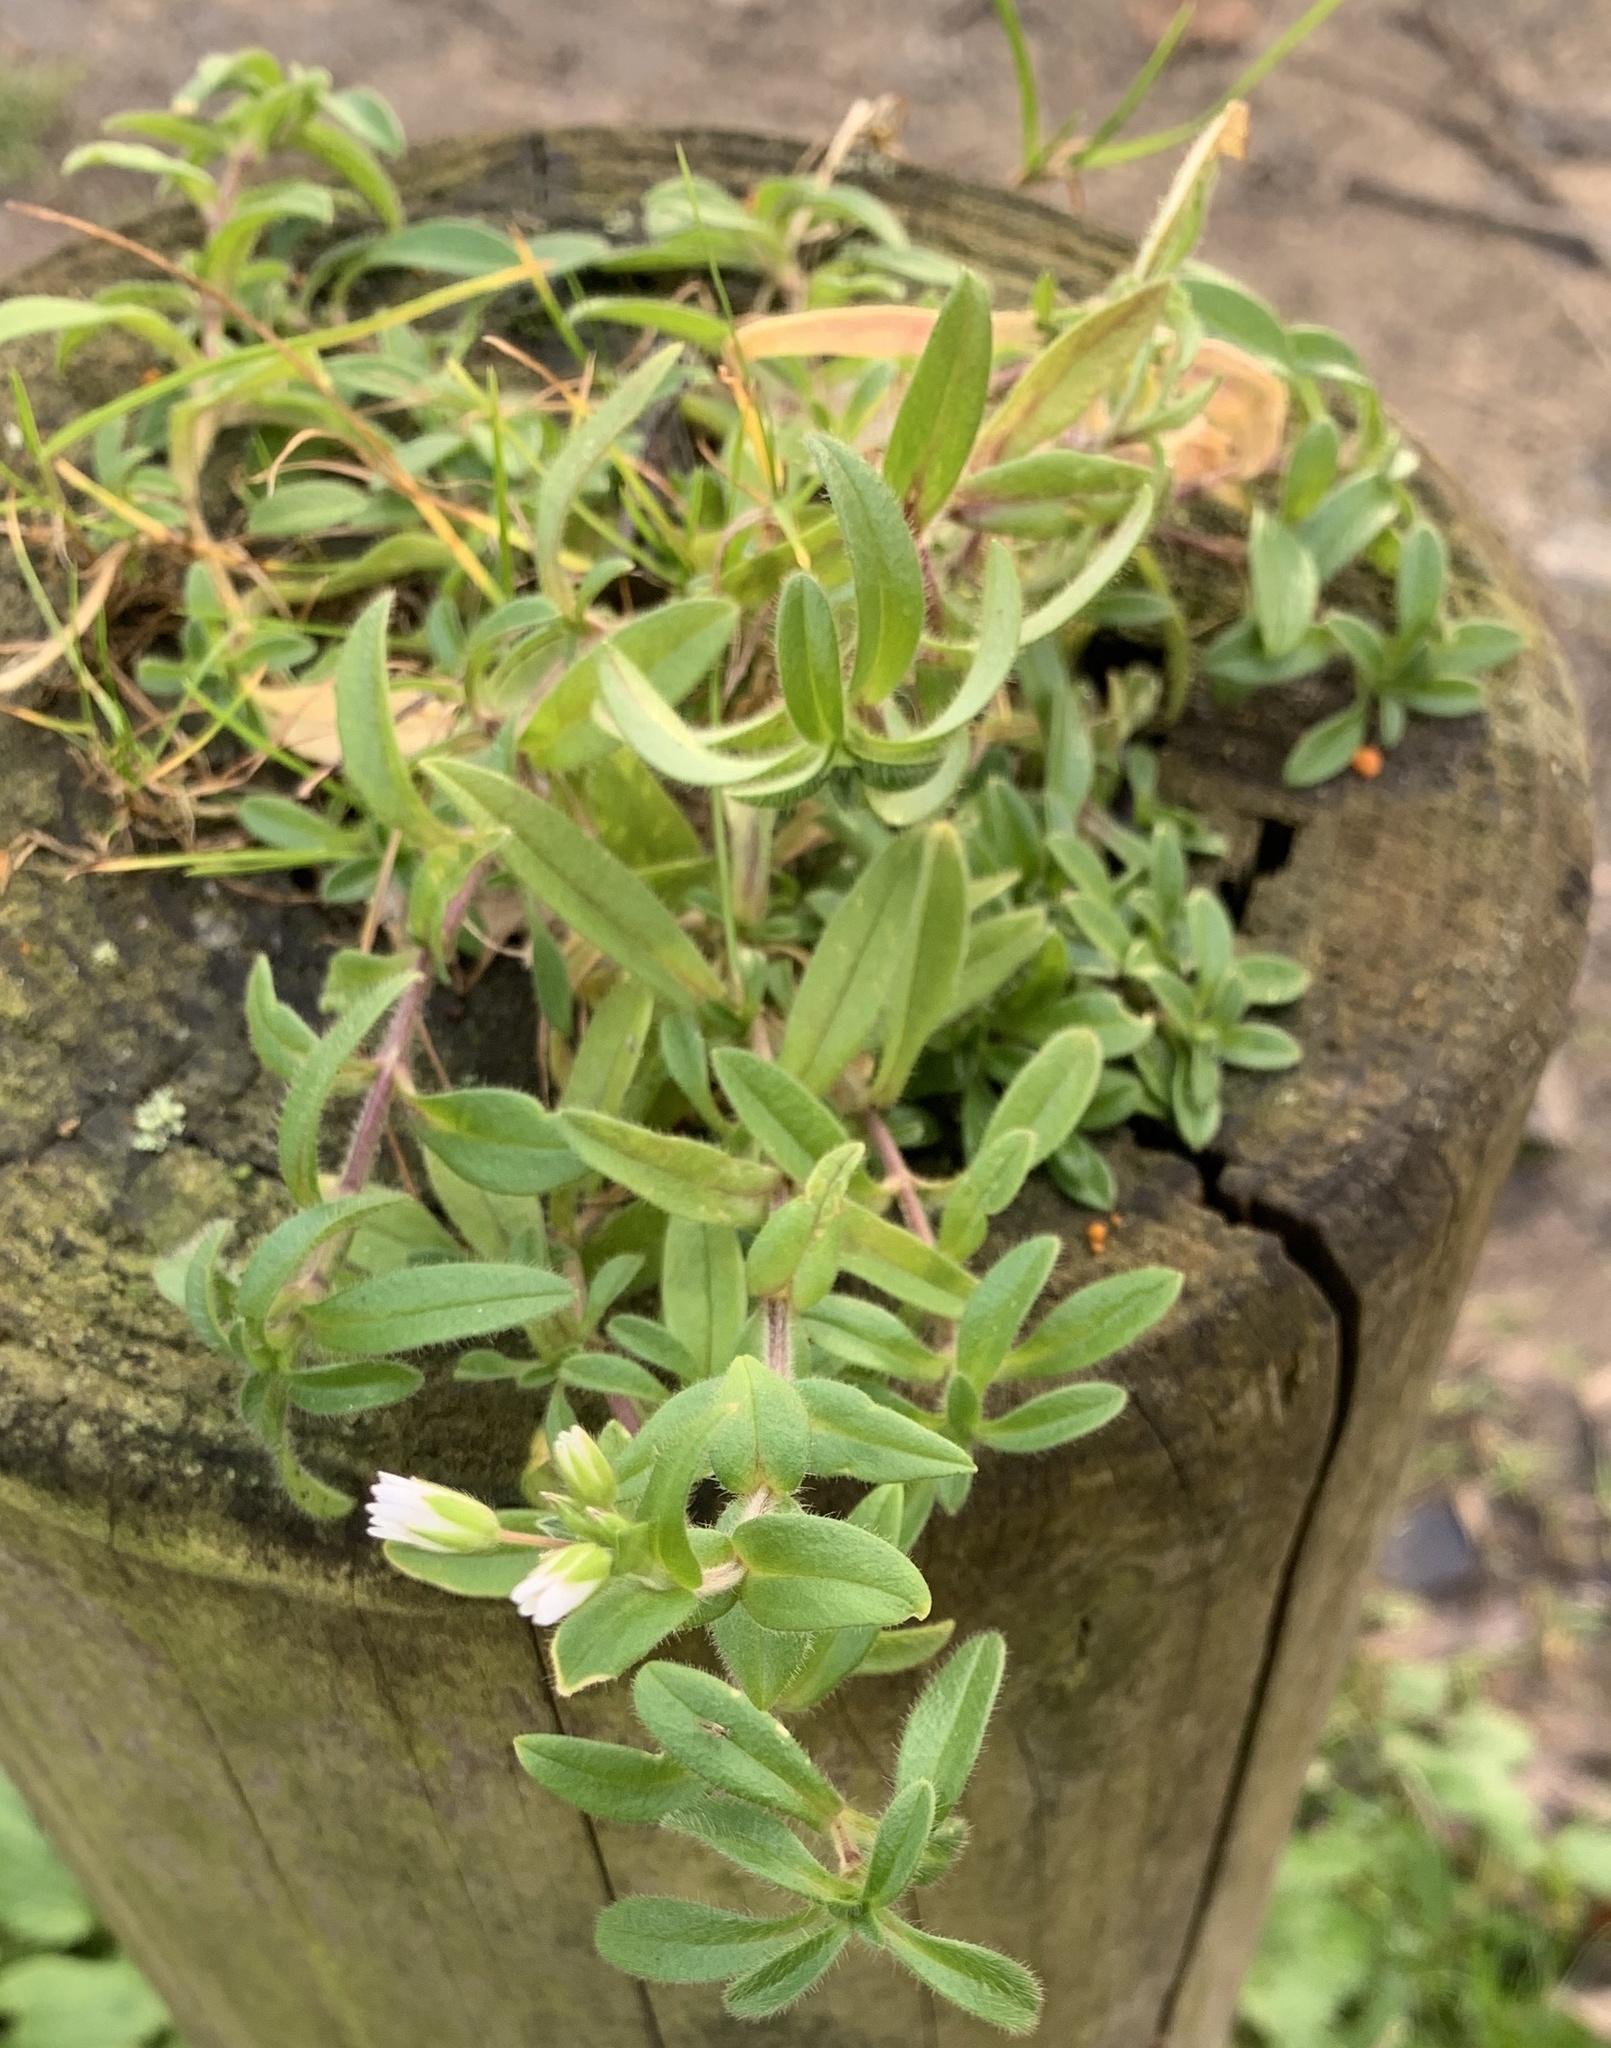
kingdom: Plantae
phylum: Tracheophyta
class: Magnoliopsida
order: Caryophyllales
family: Caryophyllaceae
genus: Cerastium
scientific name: Cerastium fontanum
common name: Common mouse-ear
